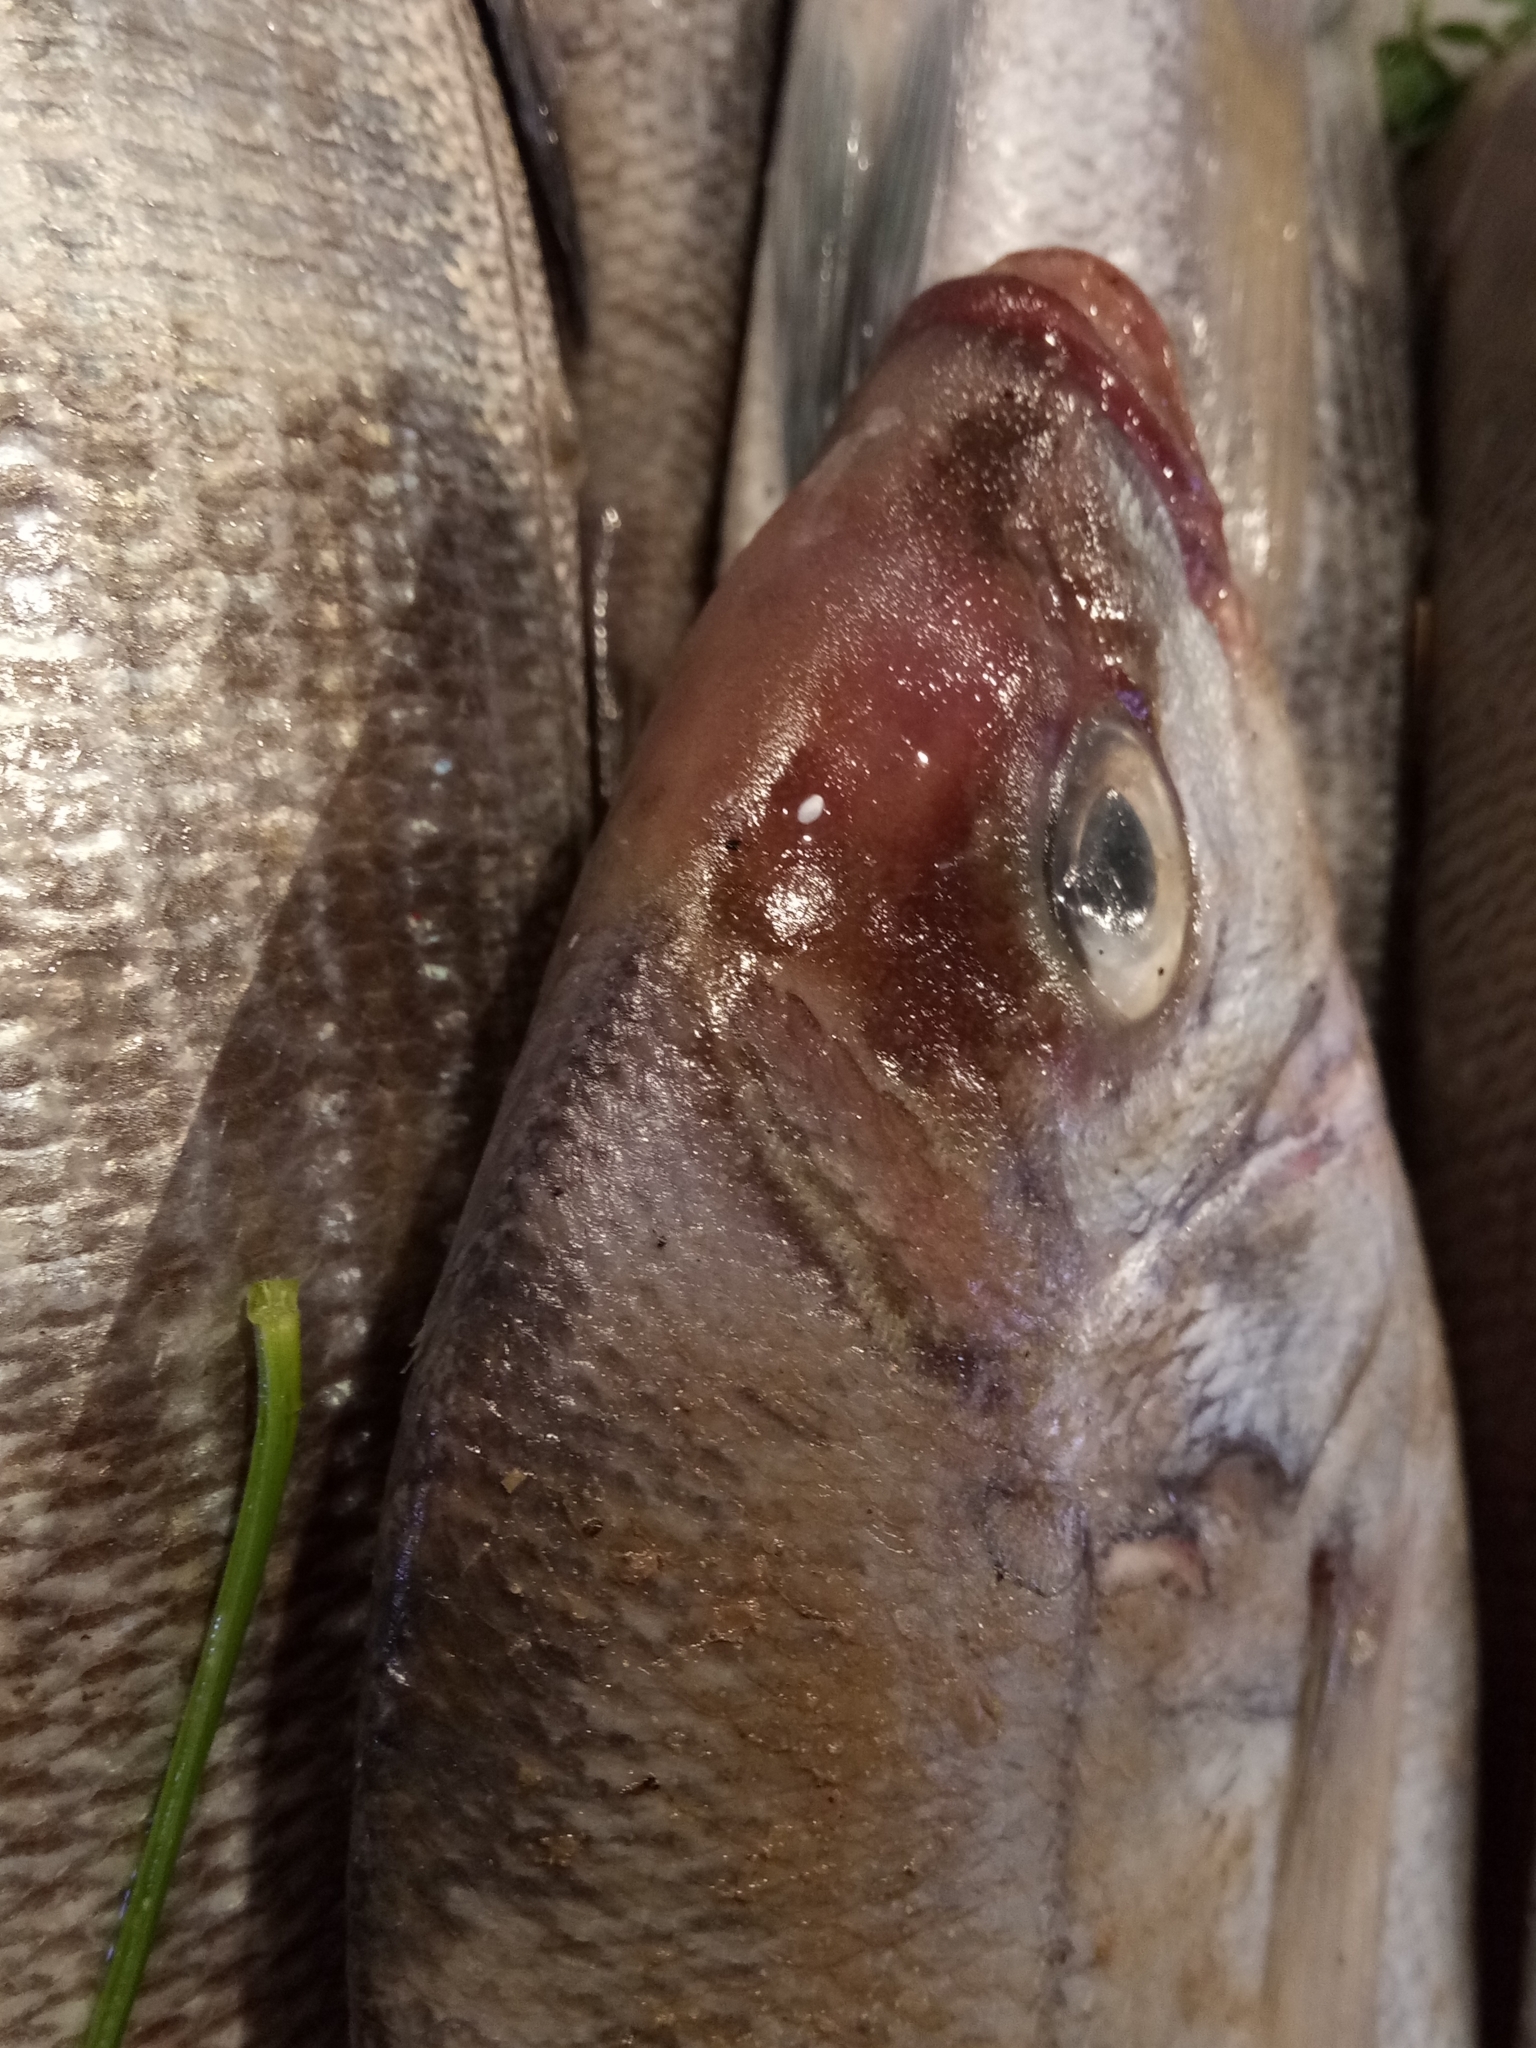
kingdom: Animalia
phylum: Chordata
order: Perciformes
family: Sparidae
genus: Spondyliosoma
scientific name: Spondyliosoma cantharus
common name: Black seabream
